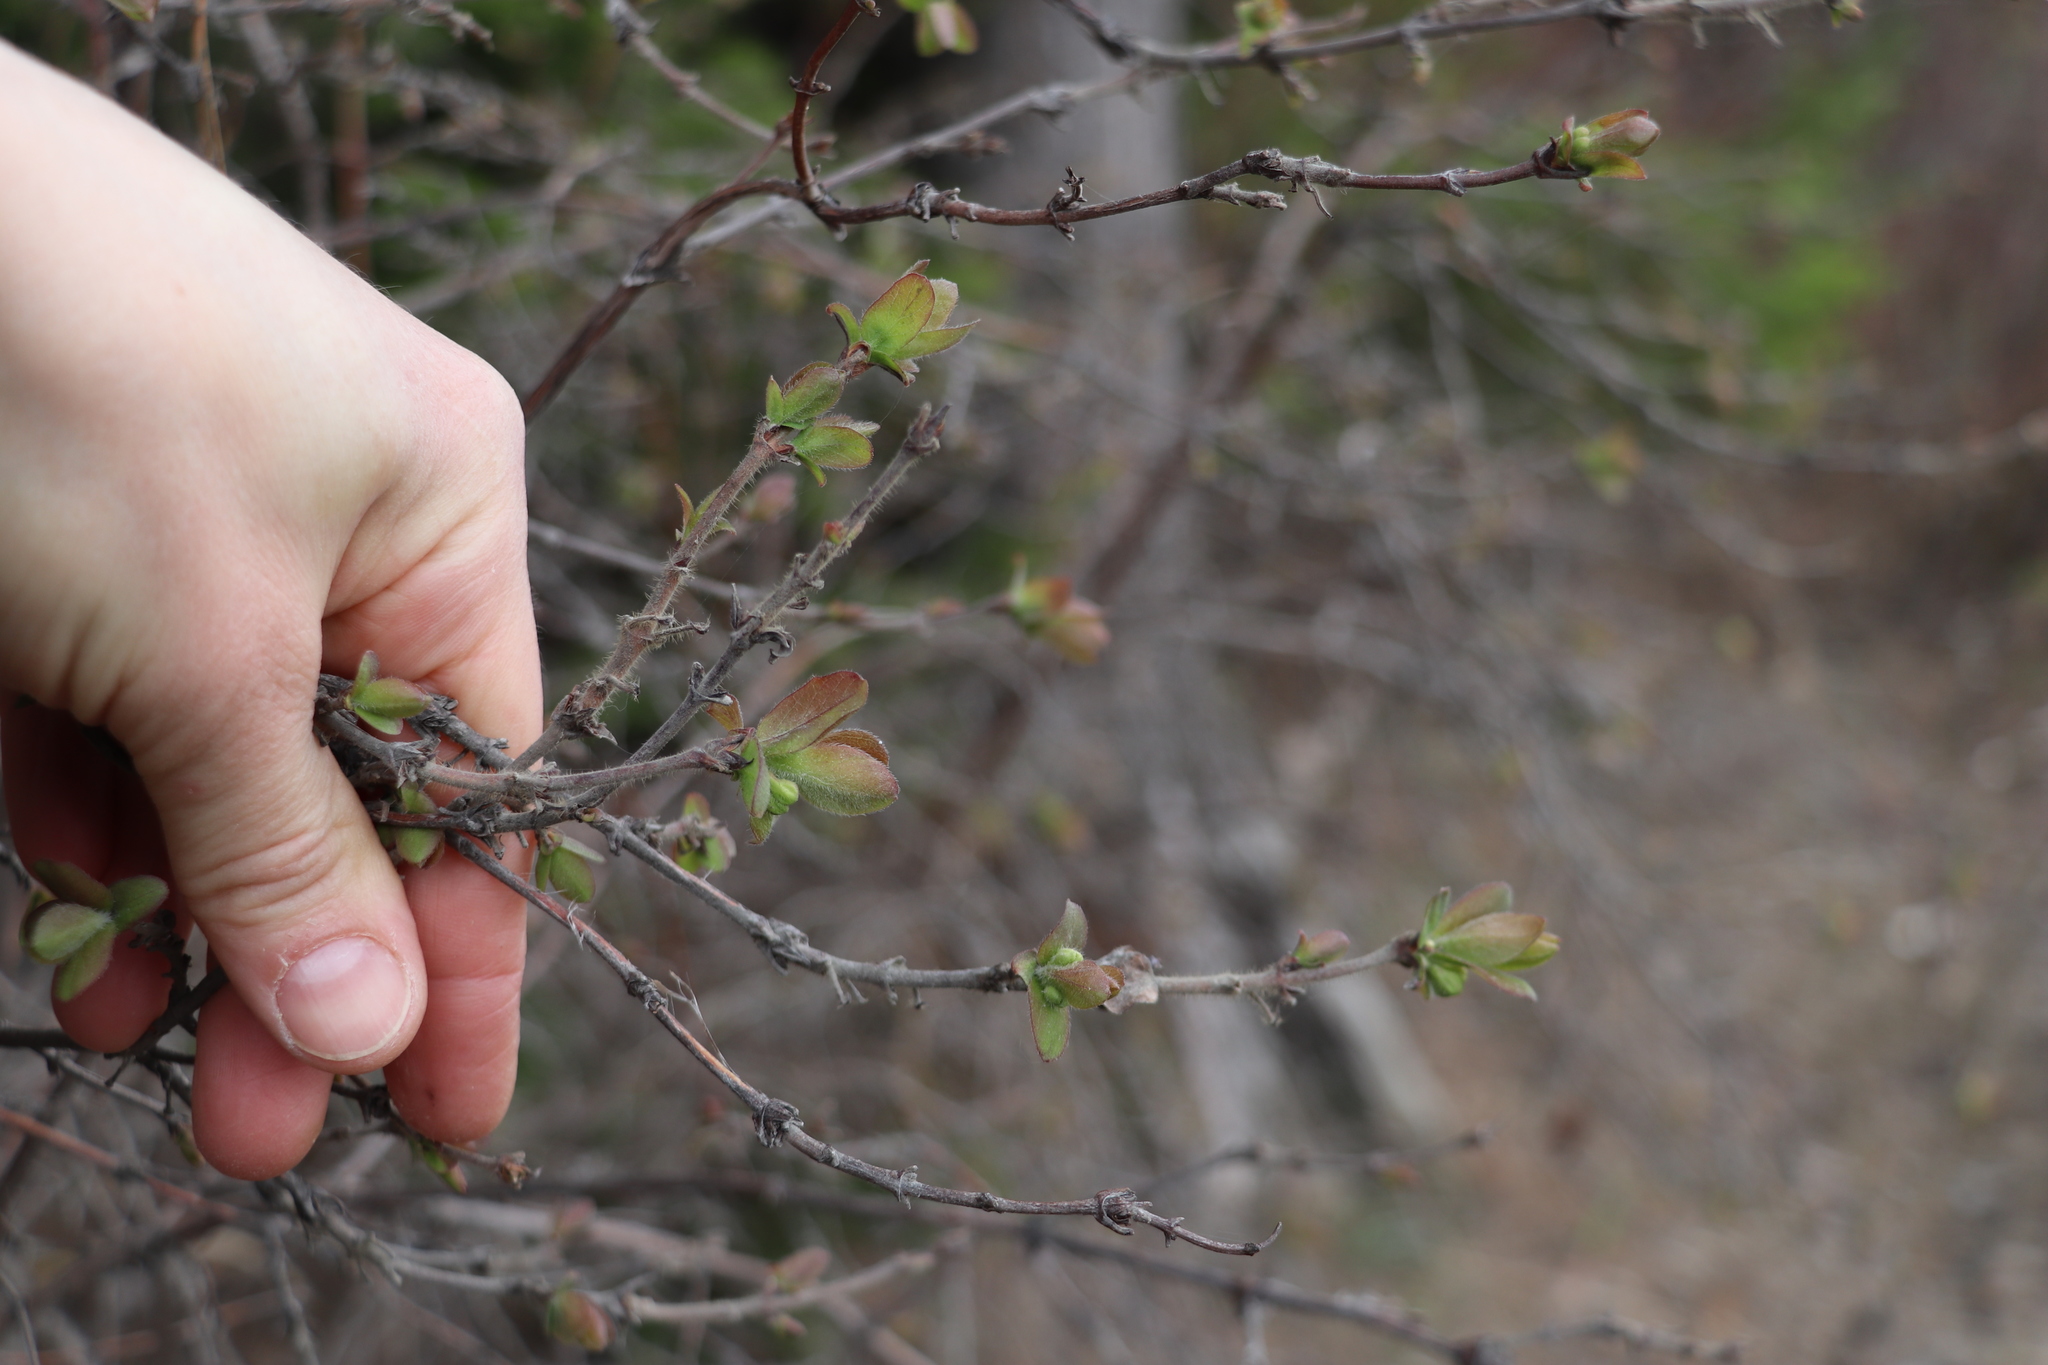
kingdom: Plantae
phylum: Tracheophyta
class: Magnoliopsida
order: Dipsacales
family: Caprifoliaceae
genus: Lonicera
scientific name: Lonicera caerulea
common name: Blue honeysuckle
